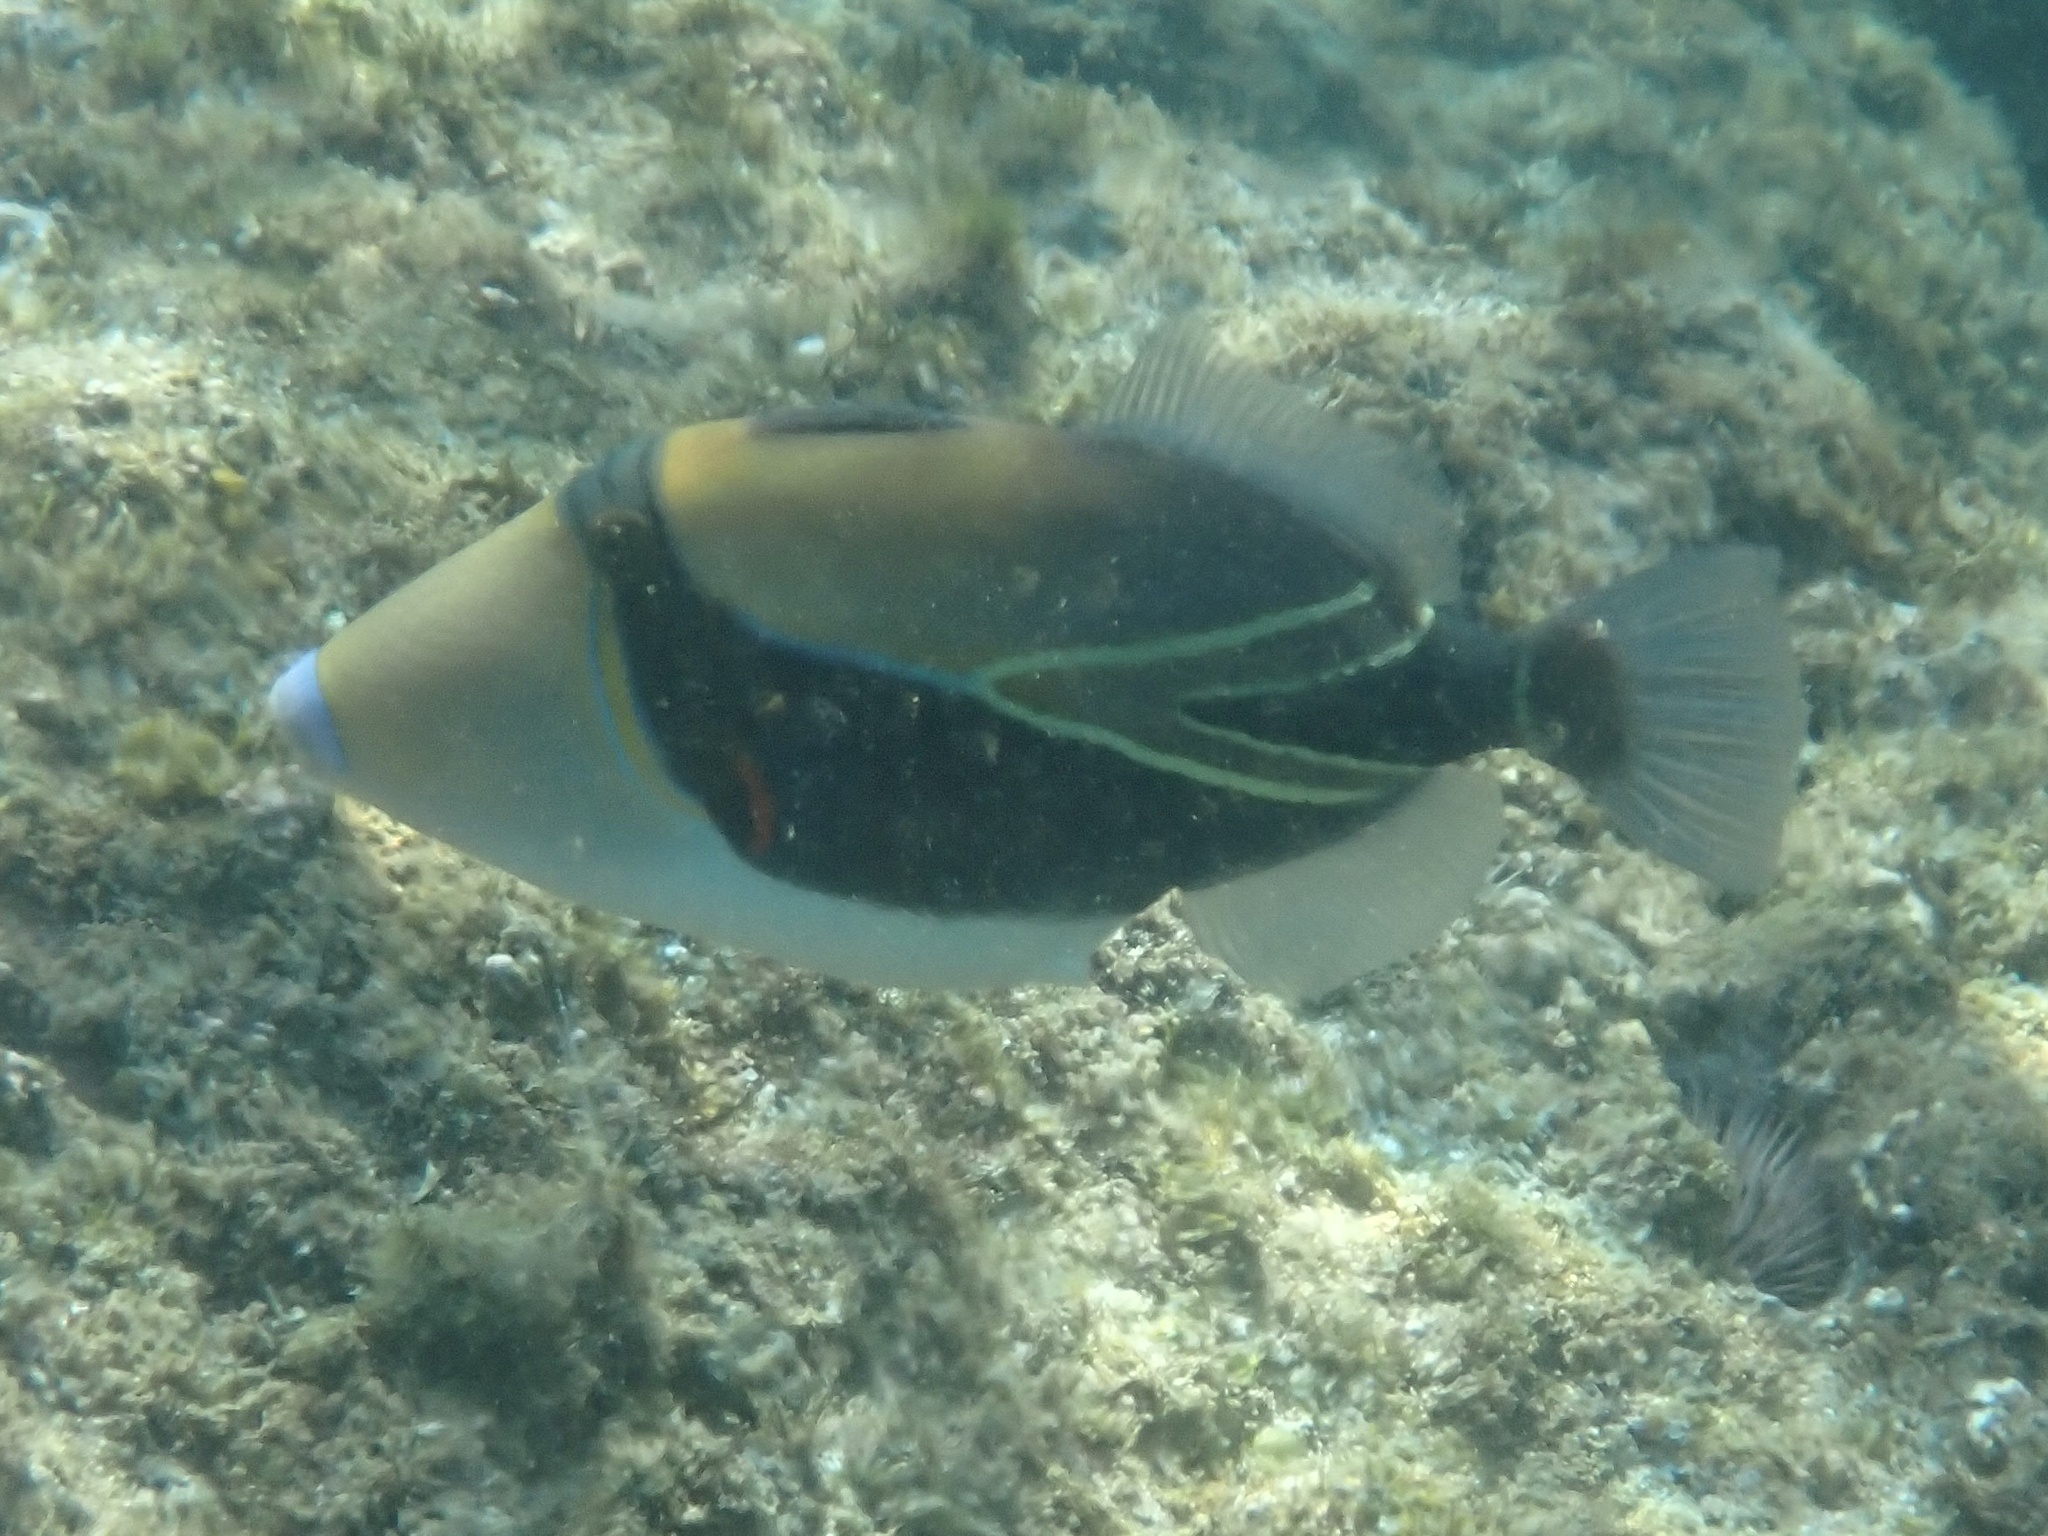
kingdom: Animalia
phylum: Chordata
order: Tetraodontiformes
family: Balistidae
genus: Rhinecanthus
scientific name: Rhinecanthus rectangulus
